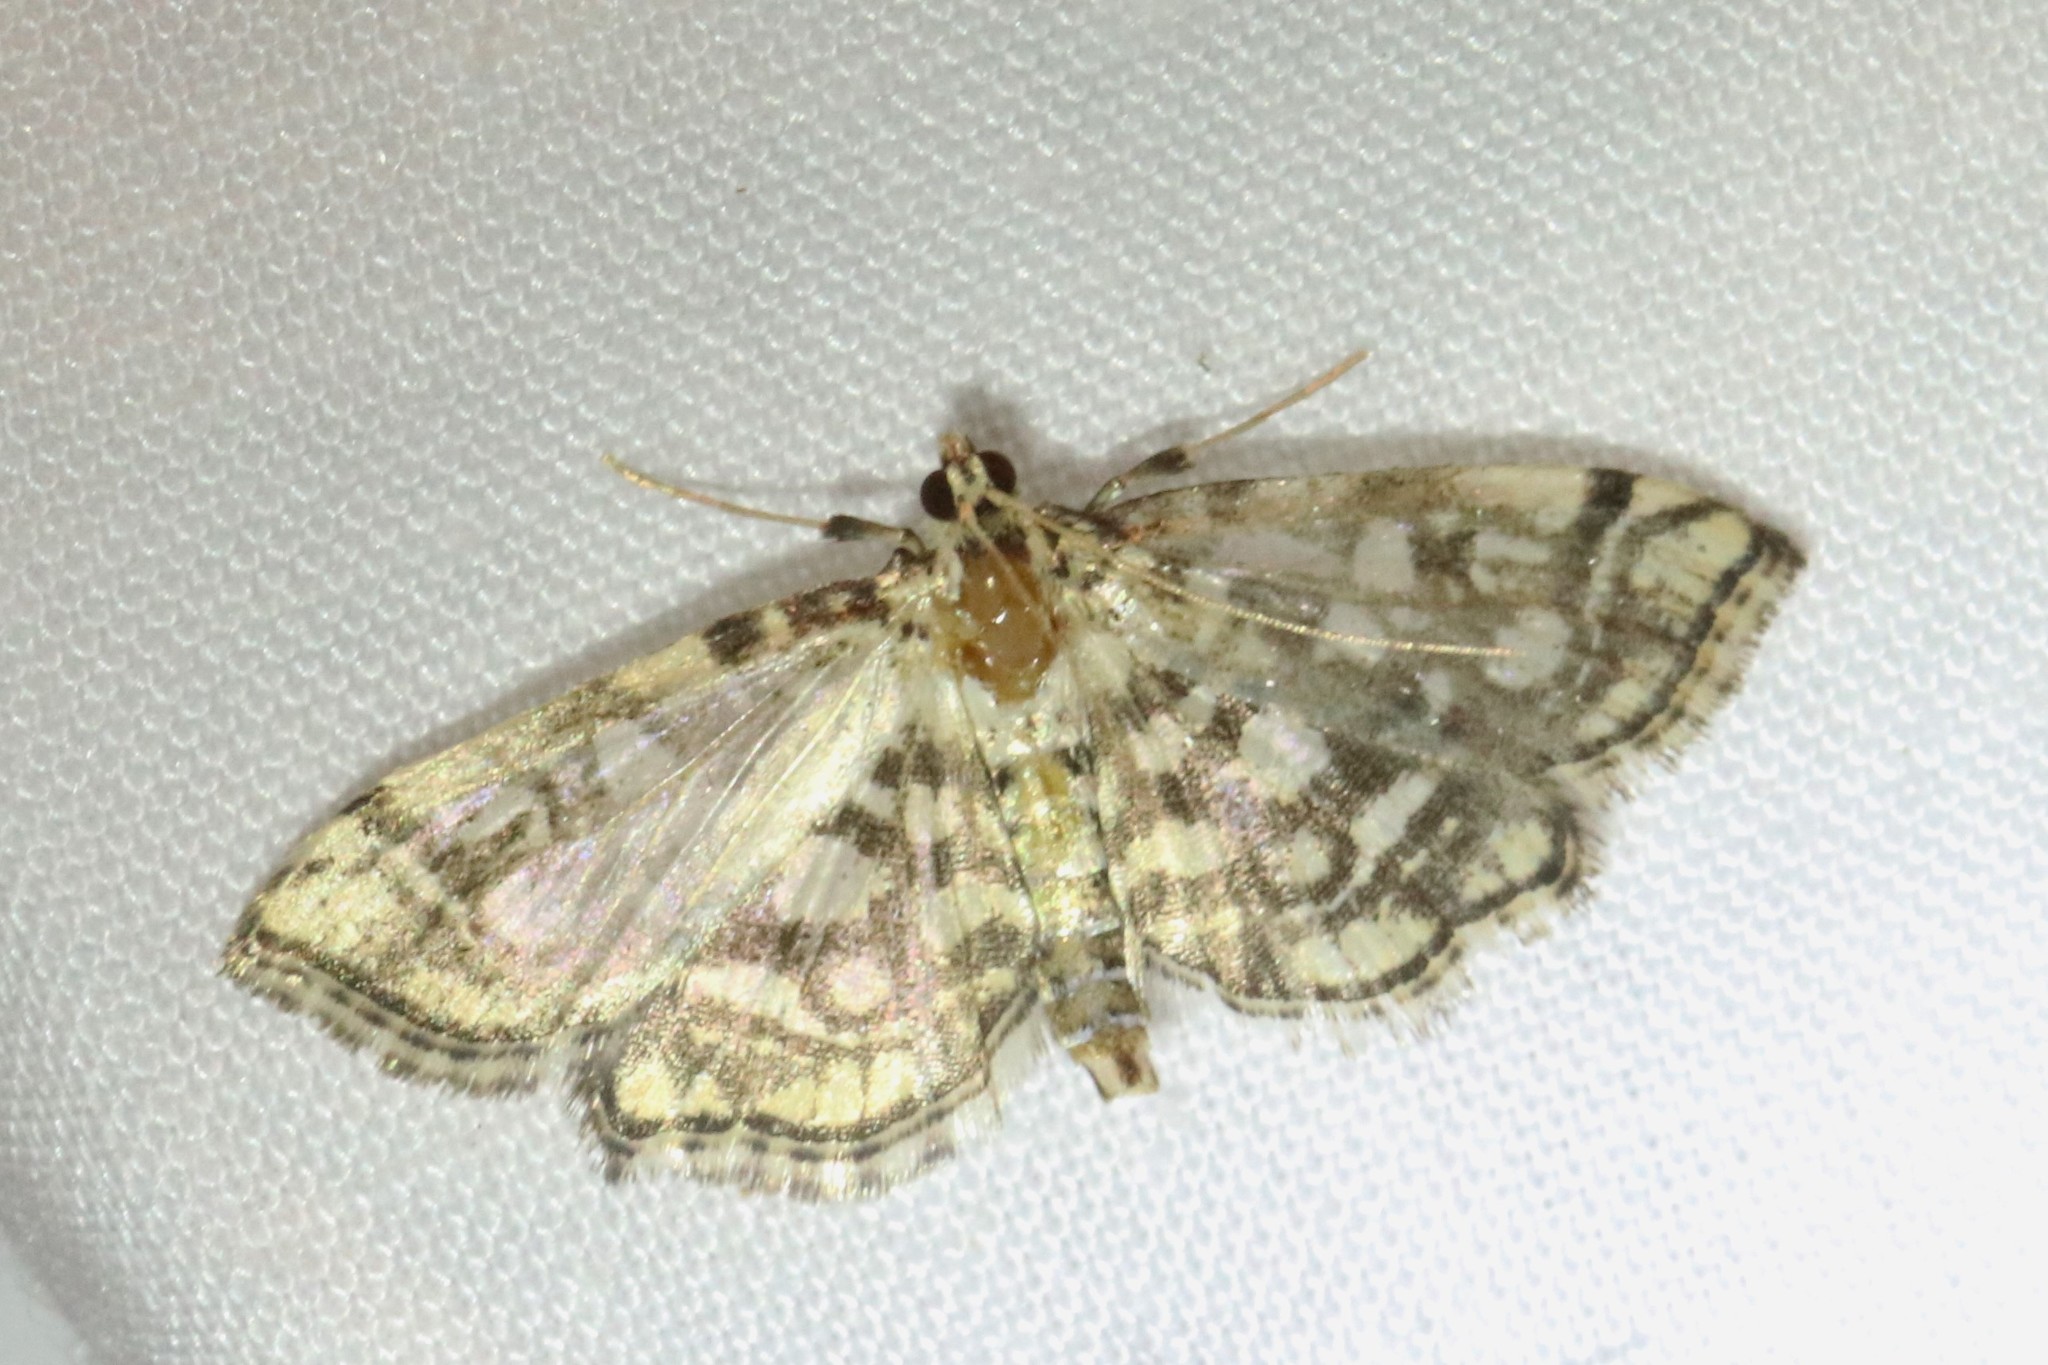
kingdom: Animalia
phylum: Arthropoda
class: Insecta
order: Lepidoptera
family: Crambidae
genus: Lygropia
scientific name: Lygropia rivulalis
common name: Bog lygropia moth
